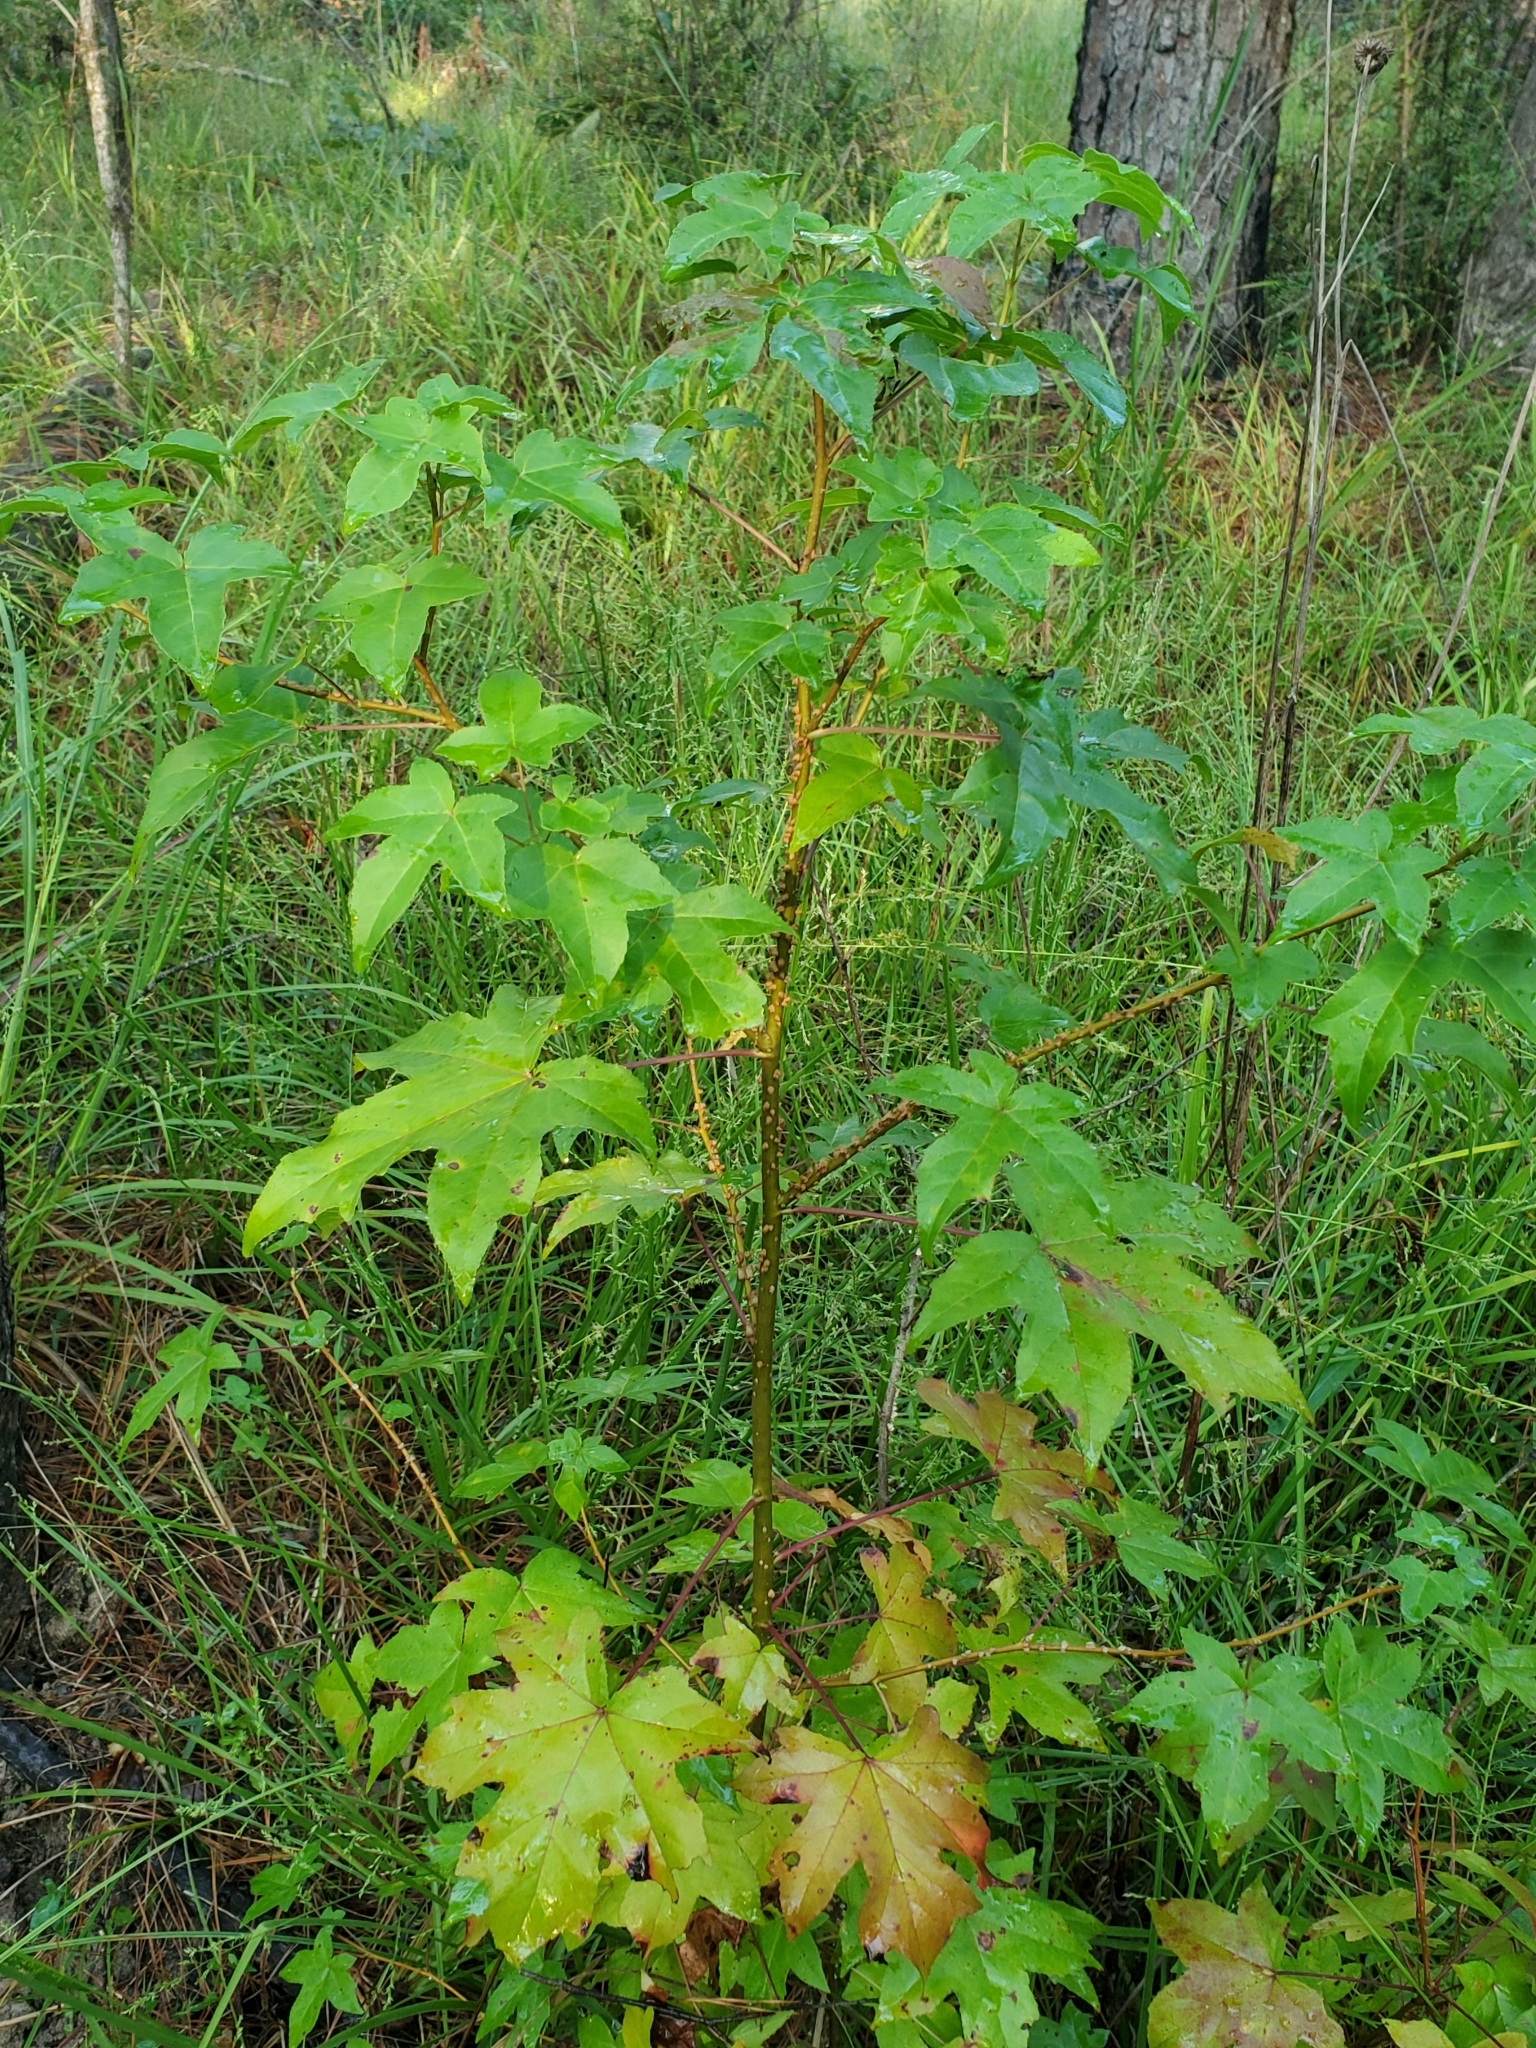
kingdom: Plantae
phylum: Tracheophyta
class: Magnoliopsida
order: Saxifragales
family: Altingiaceae
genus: Liquidambar
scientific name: Liquidambar styraciflua
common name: Sweet gum
